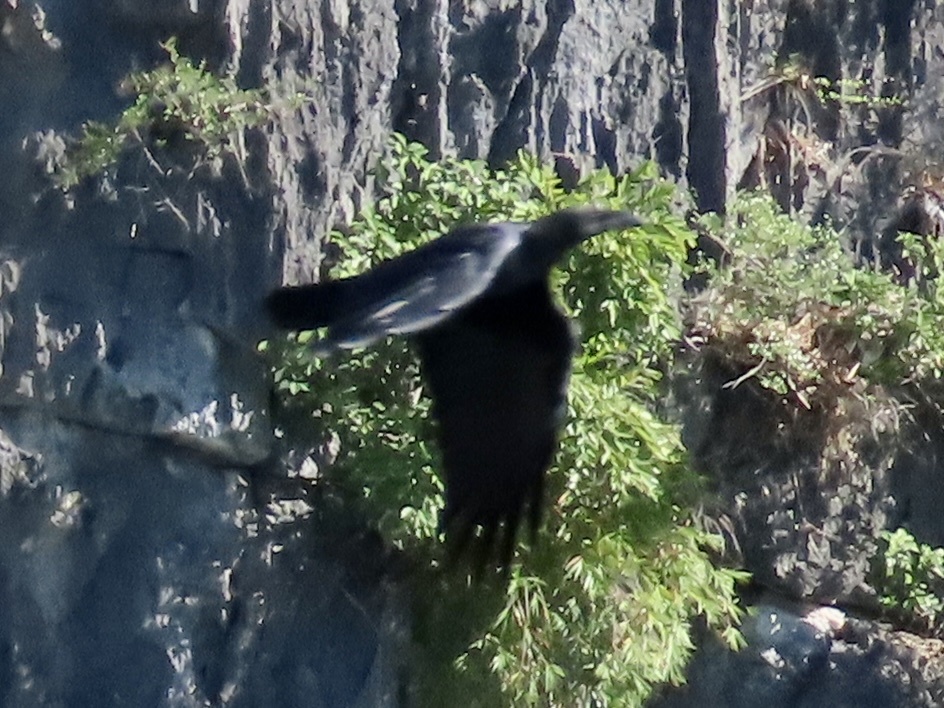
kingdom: Animalia
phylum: Chordata
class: Aves
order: Passeriformes
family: Corvidae
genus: Corvus
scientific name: Corvus macrorhynchos
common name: Large-billed crow
